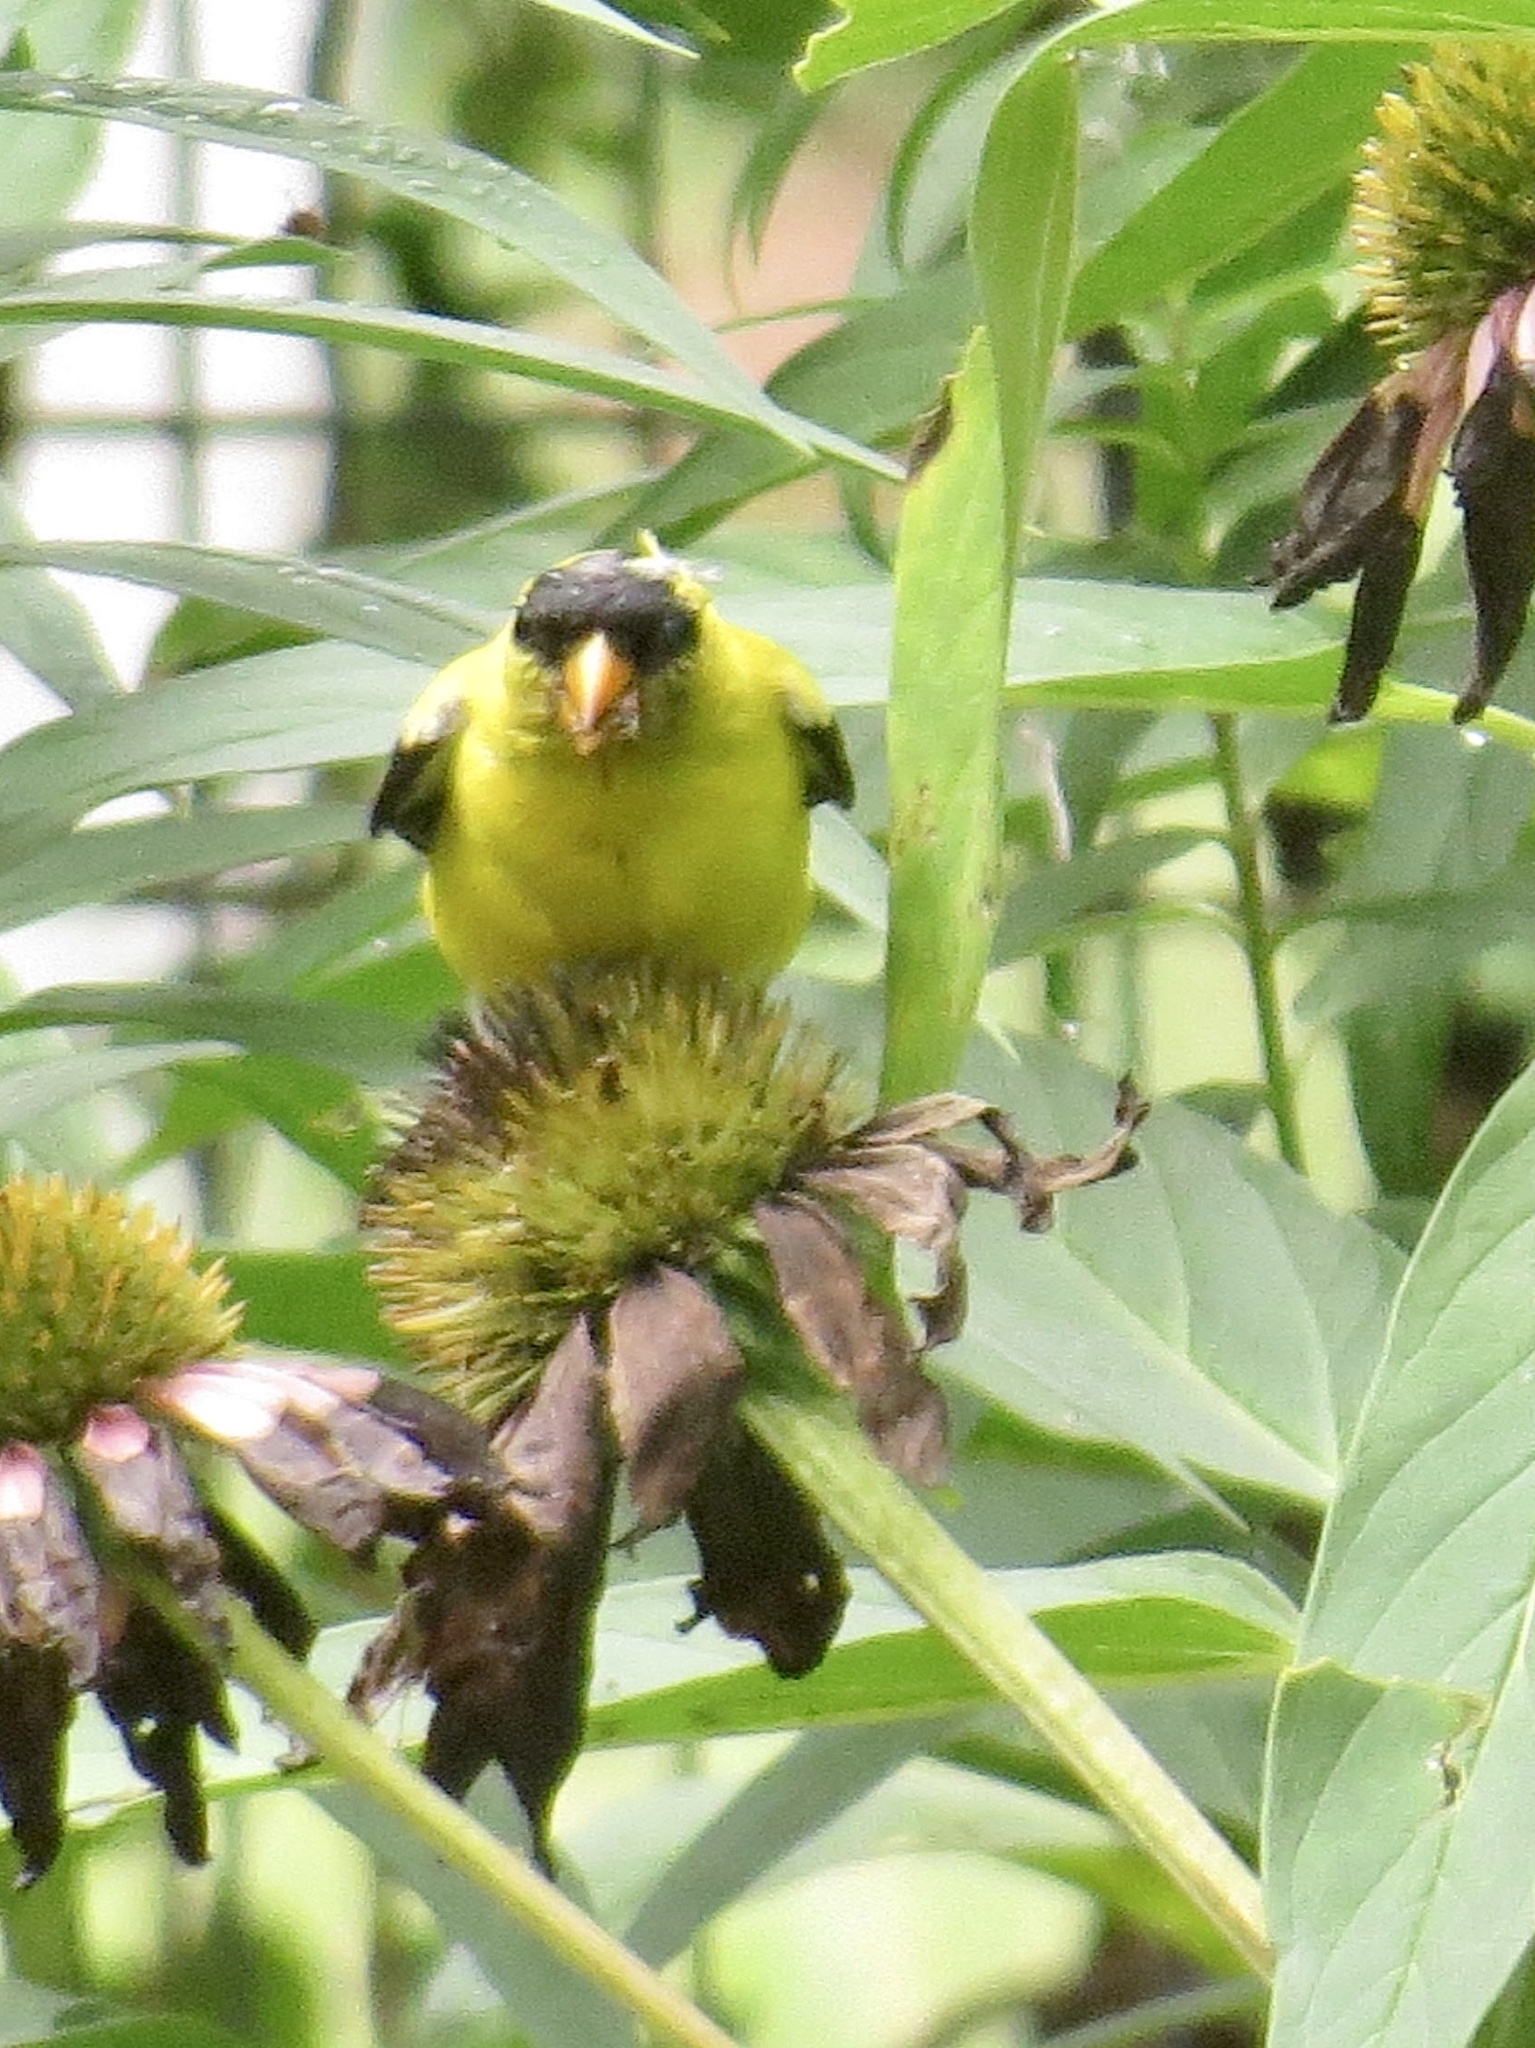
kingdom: Animalia
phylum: Chordata
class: Aves
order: Passeriformes
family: Fringillidae
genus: Spinus
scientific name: Spinus tristis
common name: American goldfinch
